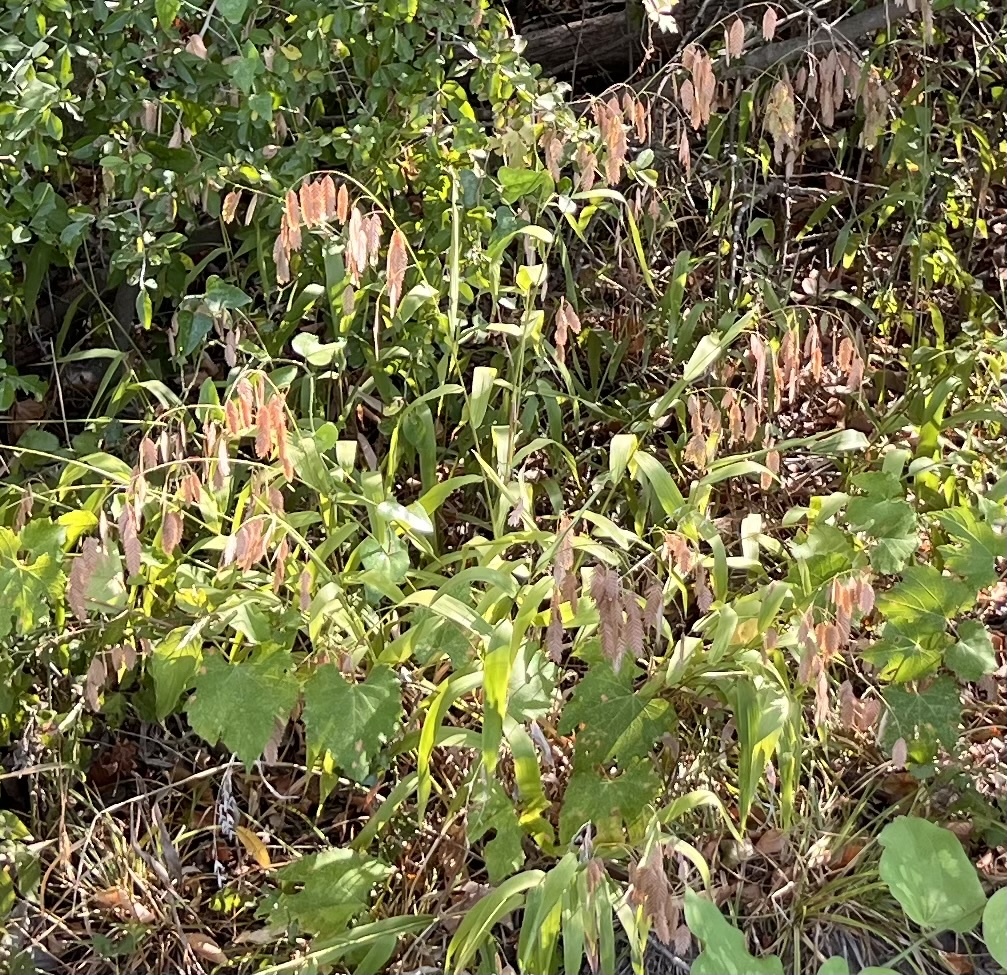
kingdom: Plantae
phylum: Tracheophyta
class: Liliopsida
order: Poales
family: Poaceae
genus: Chasmanthium
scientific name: Chasmanthium latifolium
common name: Broad-leaved chasmanthium
